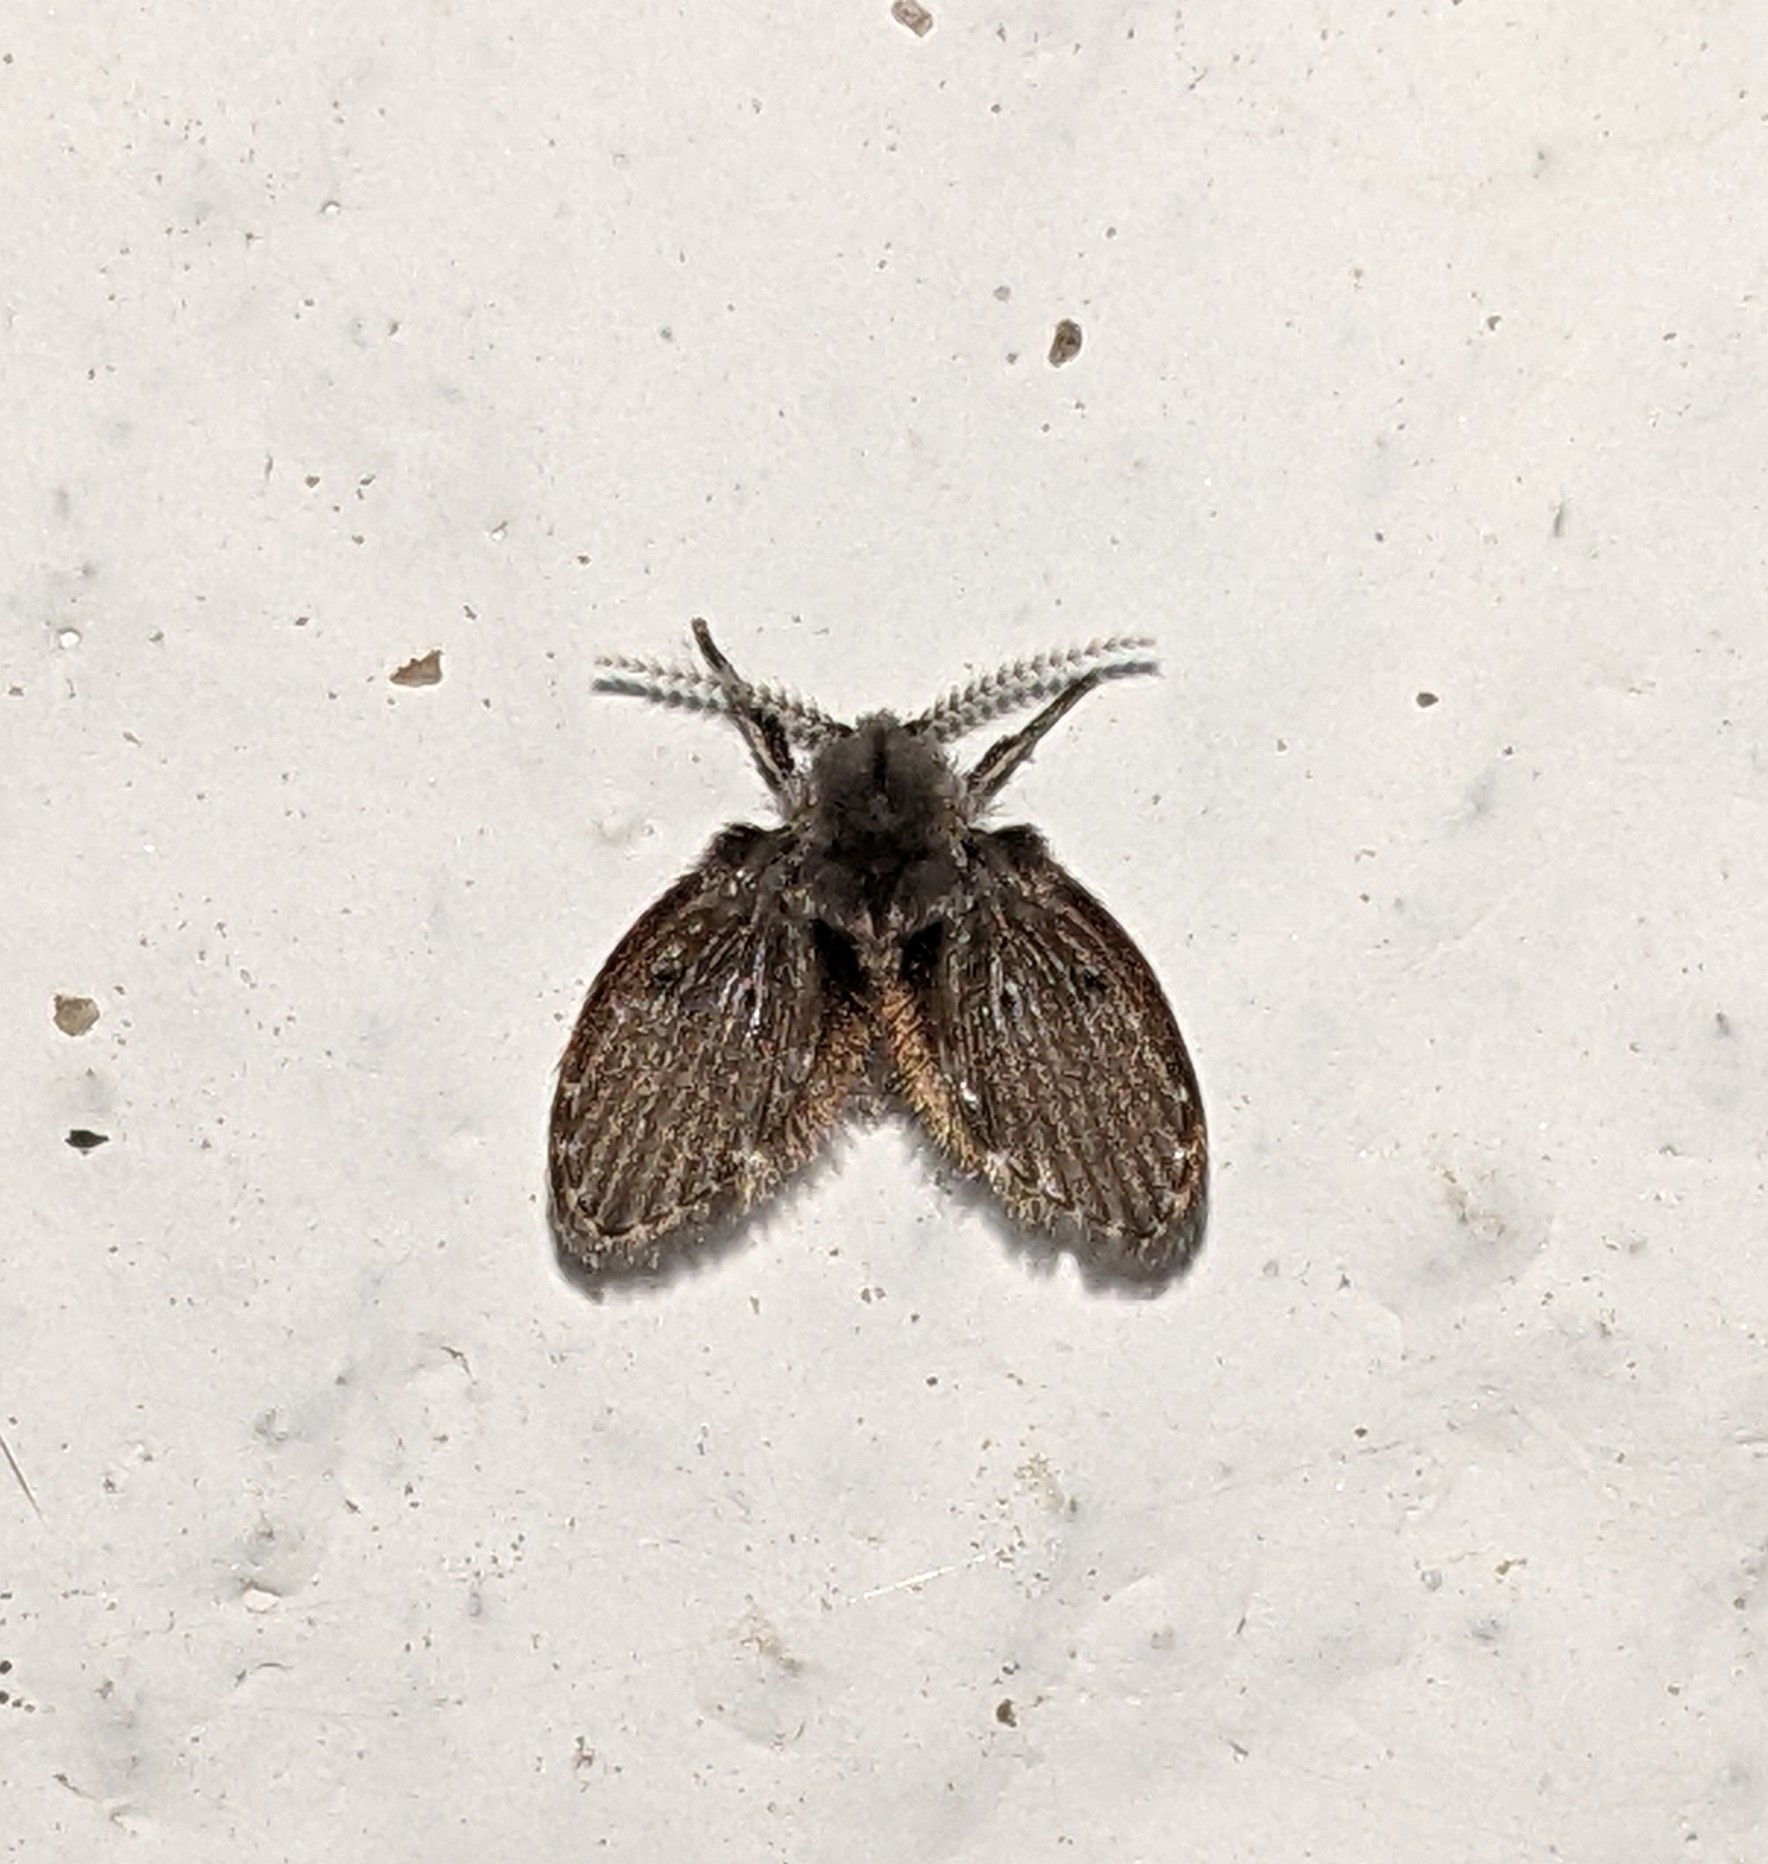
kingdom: Animalia
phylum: Arthropoda
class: Insecta
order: Diptera
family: Psychodidae
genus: Clogmia
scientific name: Clogmia albipunctatus
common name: White-spotted moth fly
